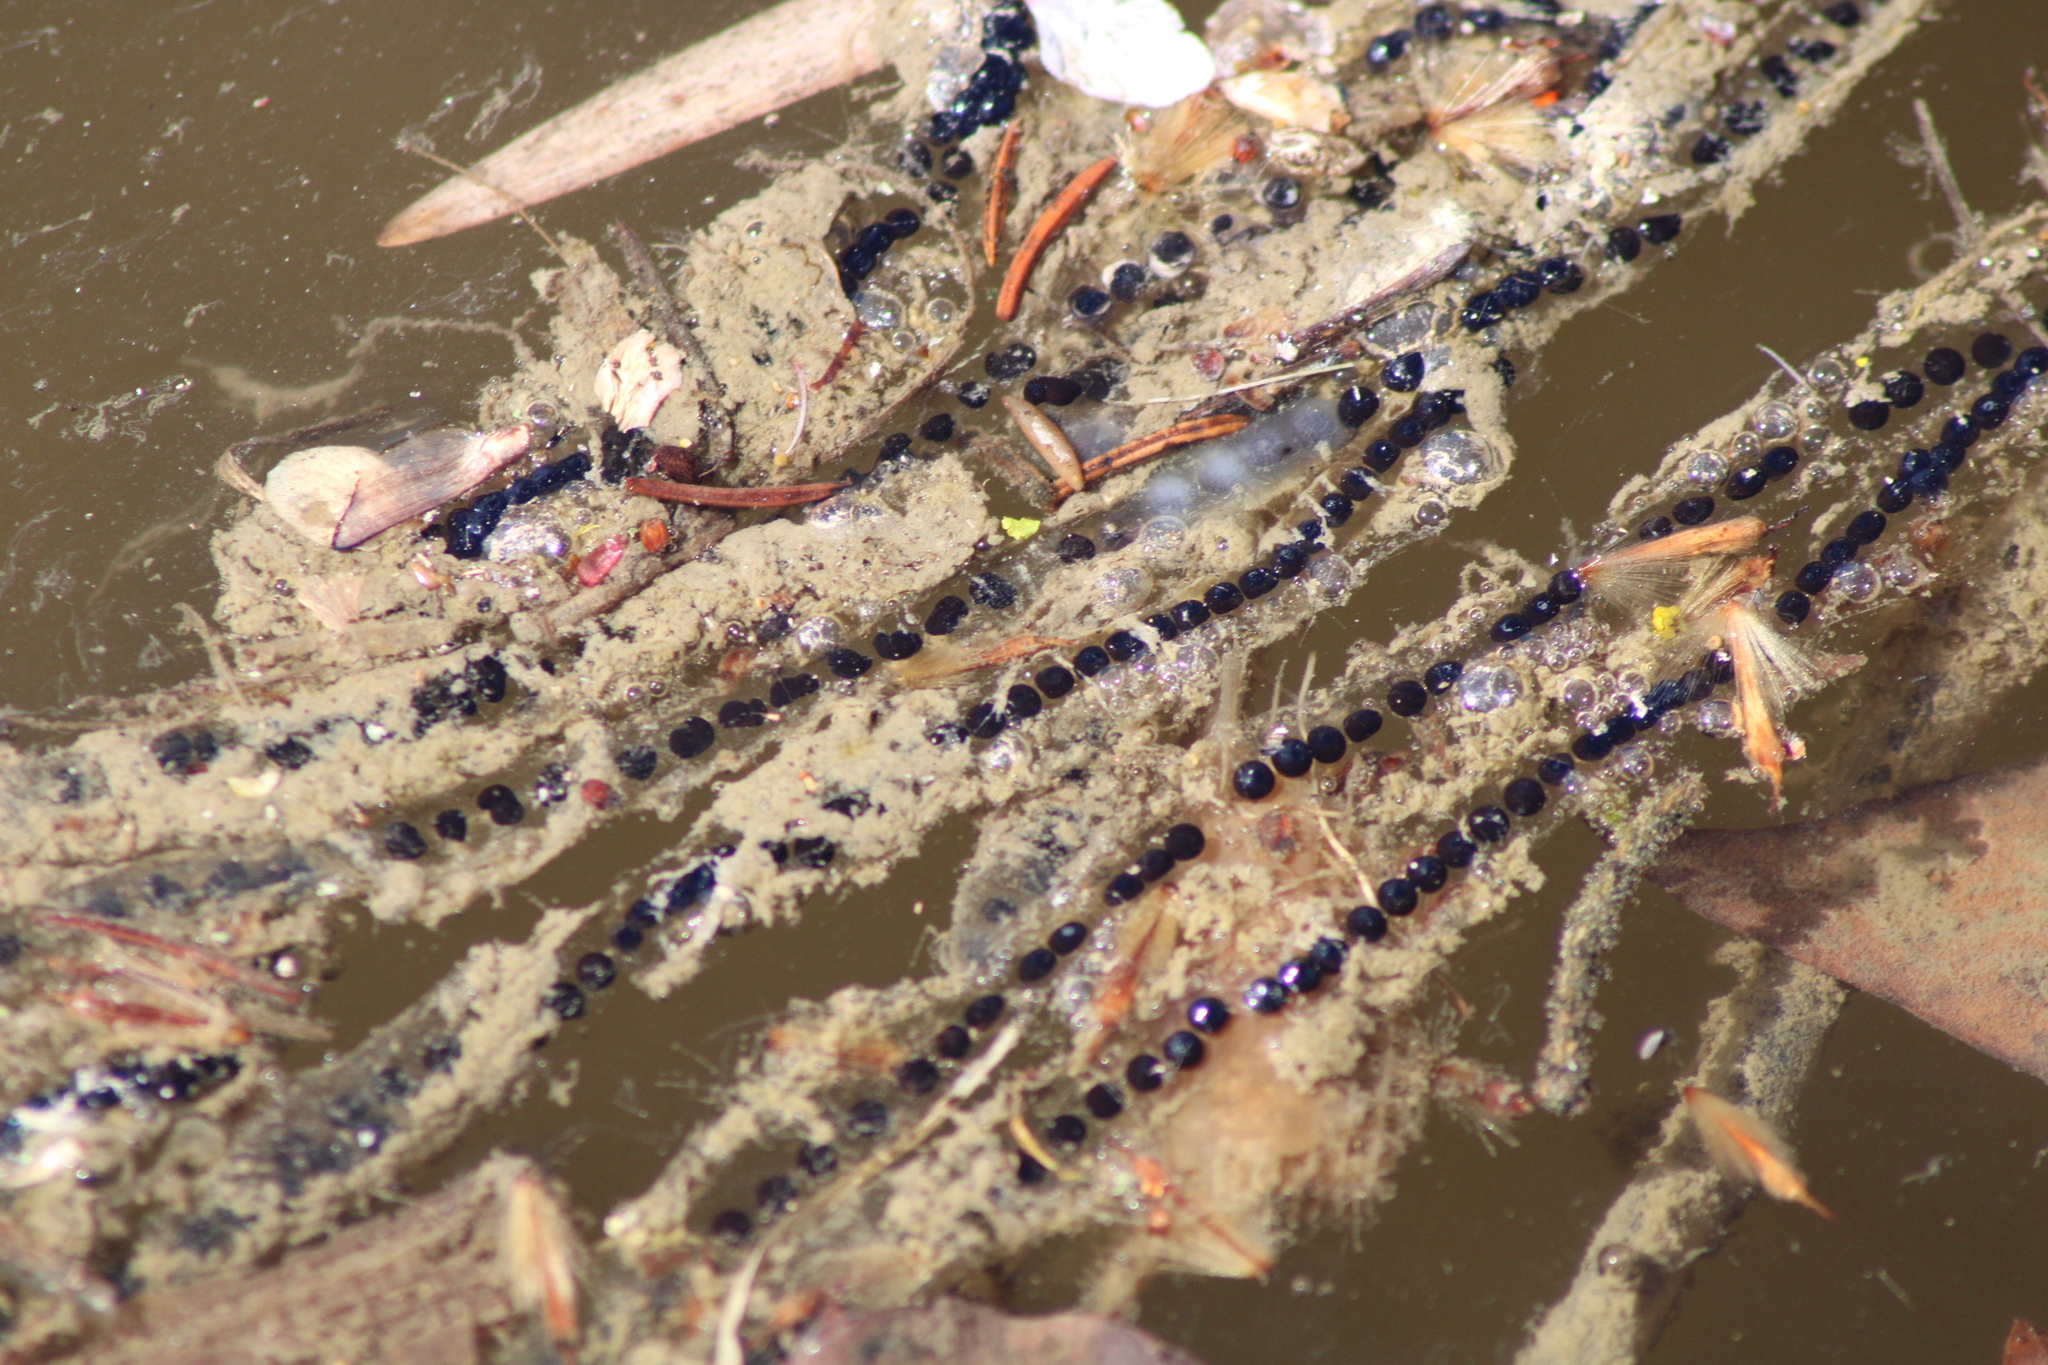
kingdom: Animalia
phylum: Chordata
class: Amphibia
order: Anura
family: Bufonidae
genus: Bufo
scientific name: Bufo bufo
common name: Common toad
